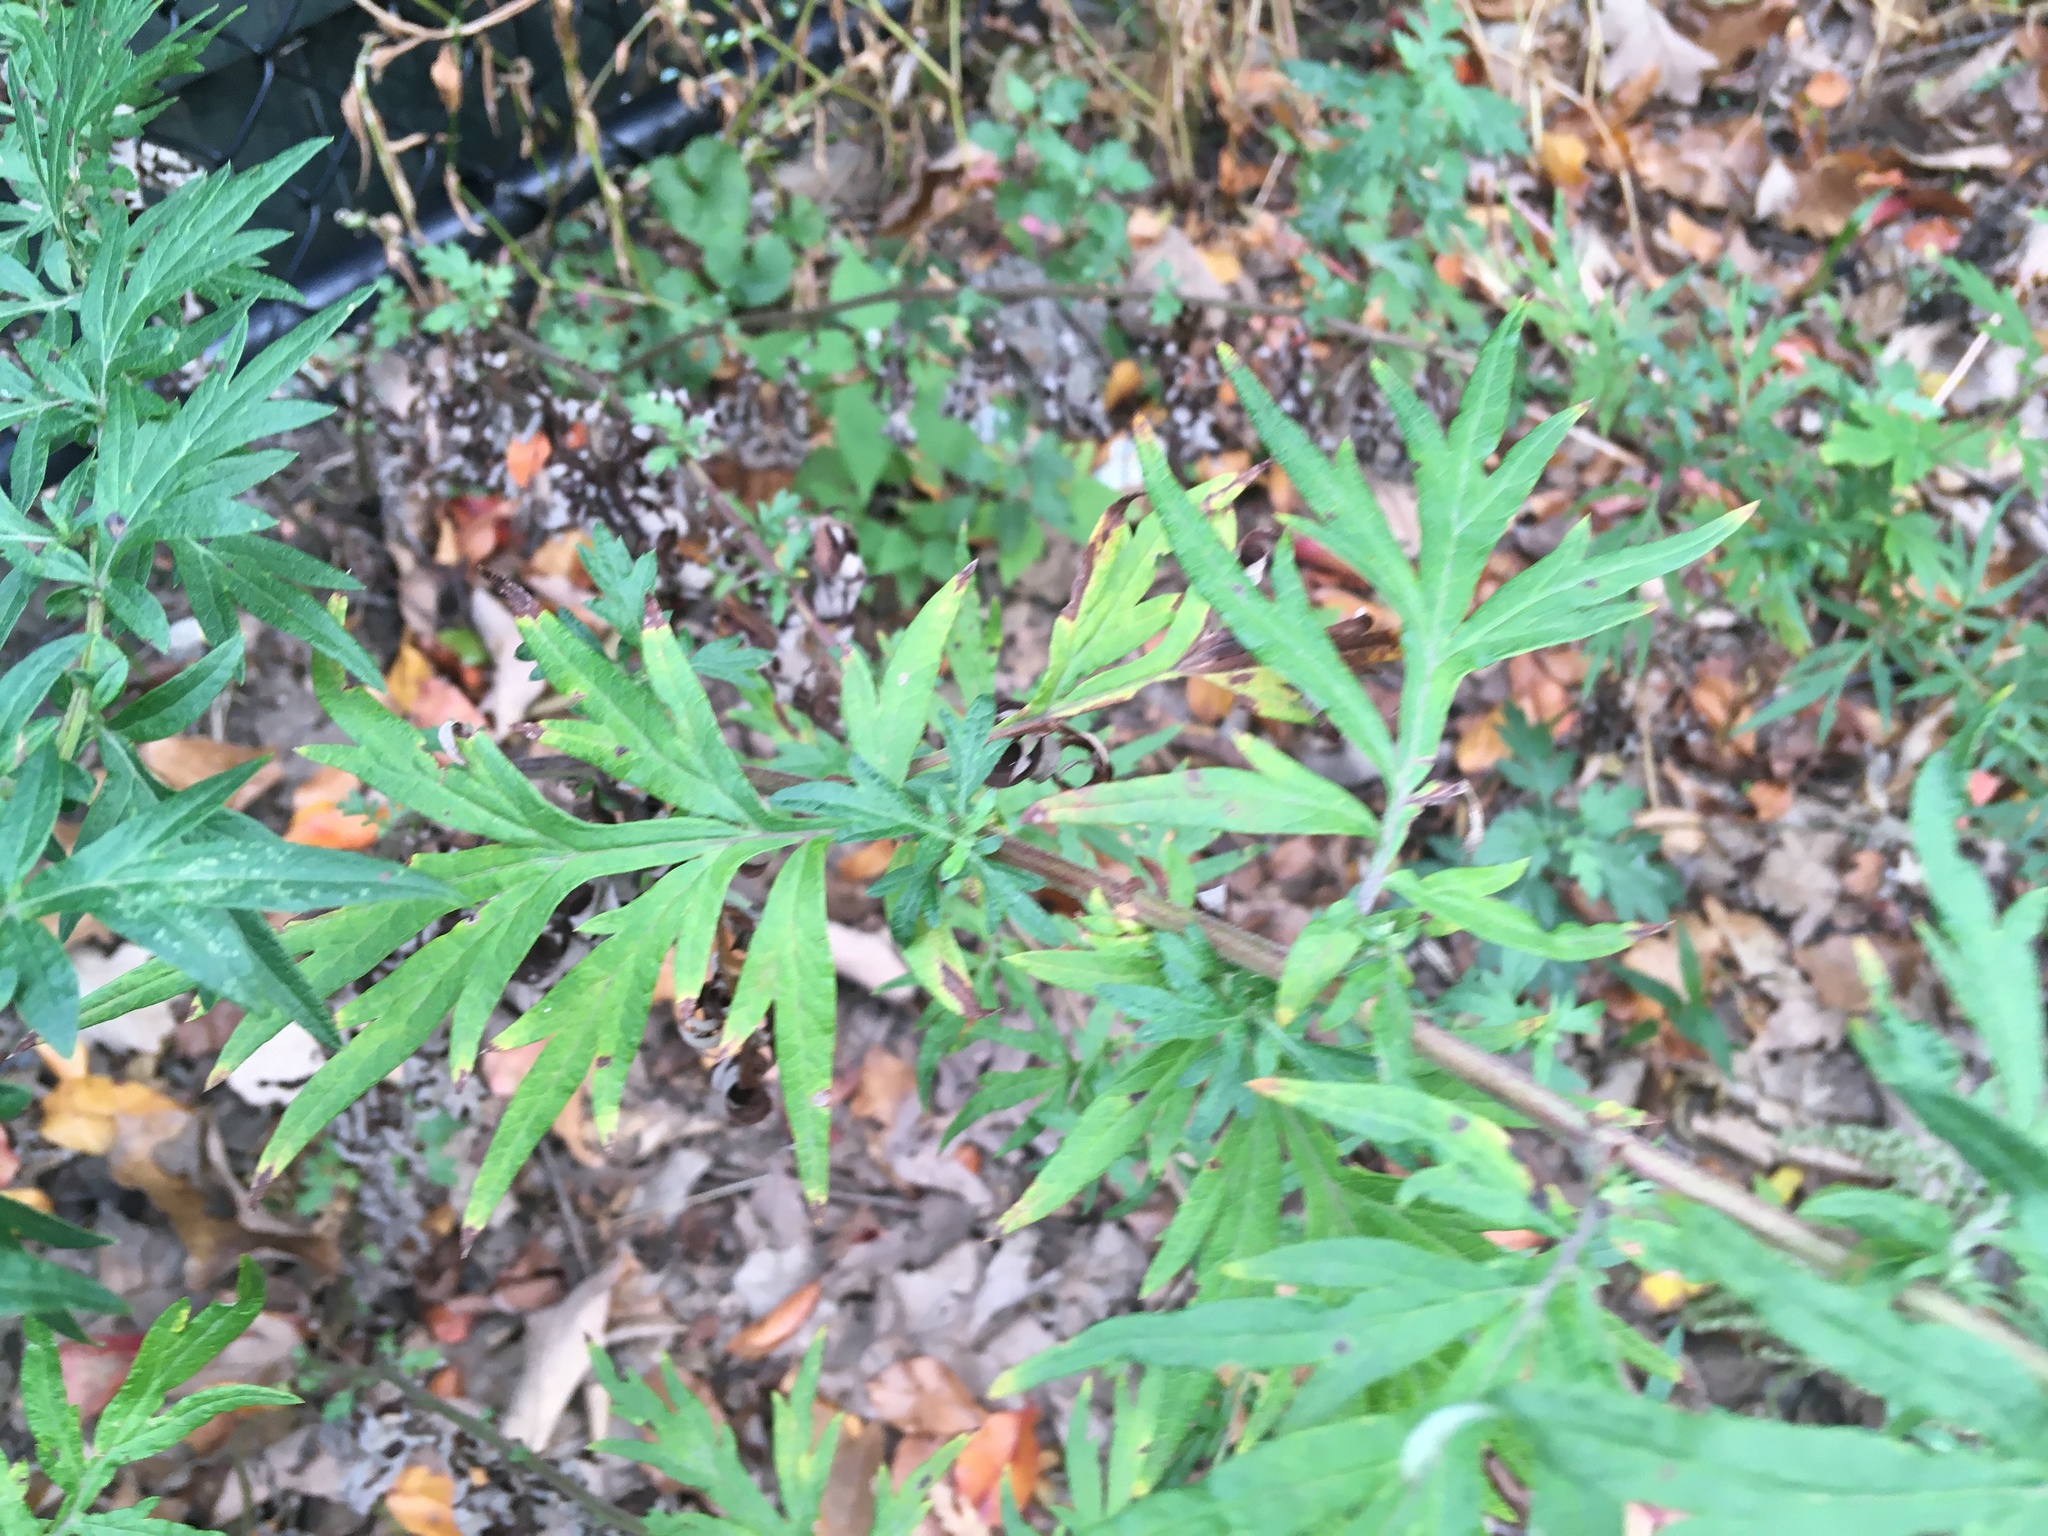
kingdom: Plantae
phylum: Tracheophyta
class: Magnoliopsida
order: Asterales
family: Asteraceae
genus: Artemisia
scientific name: Artemisia vulgaris
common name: Mugwort
